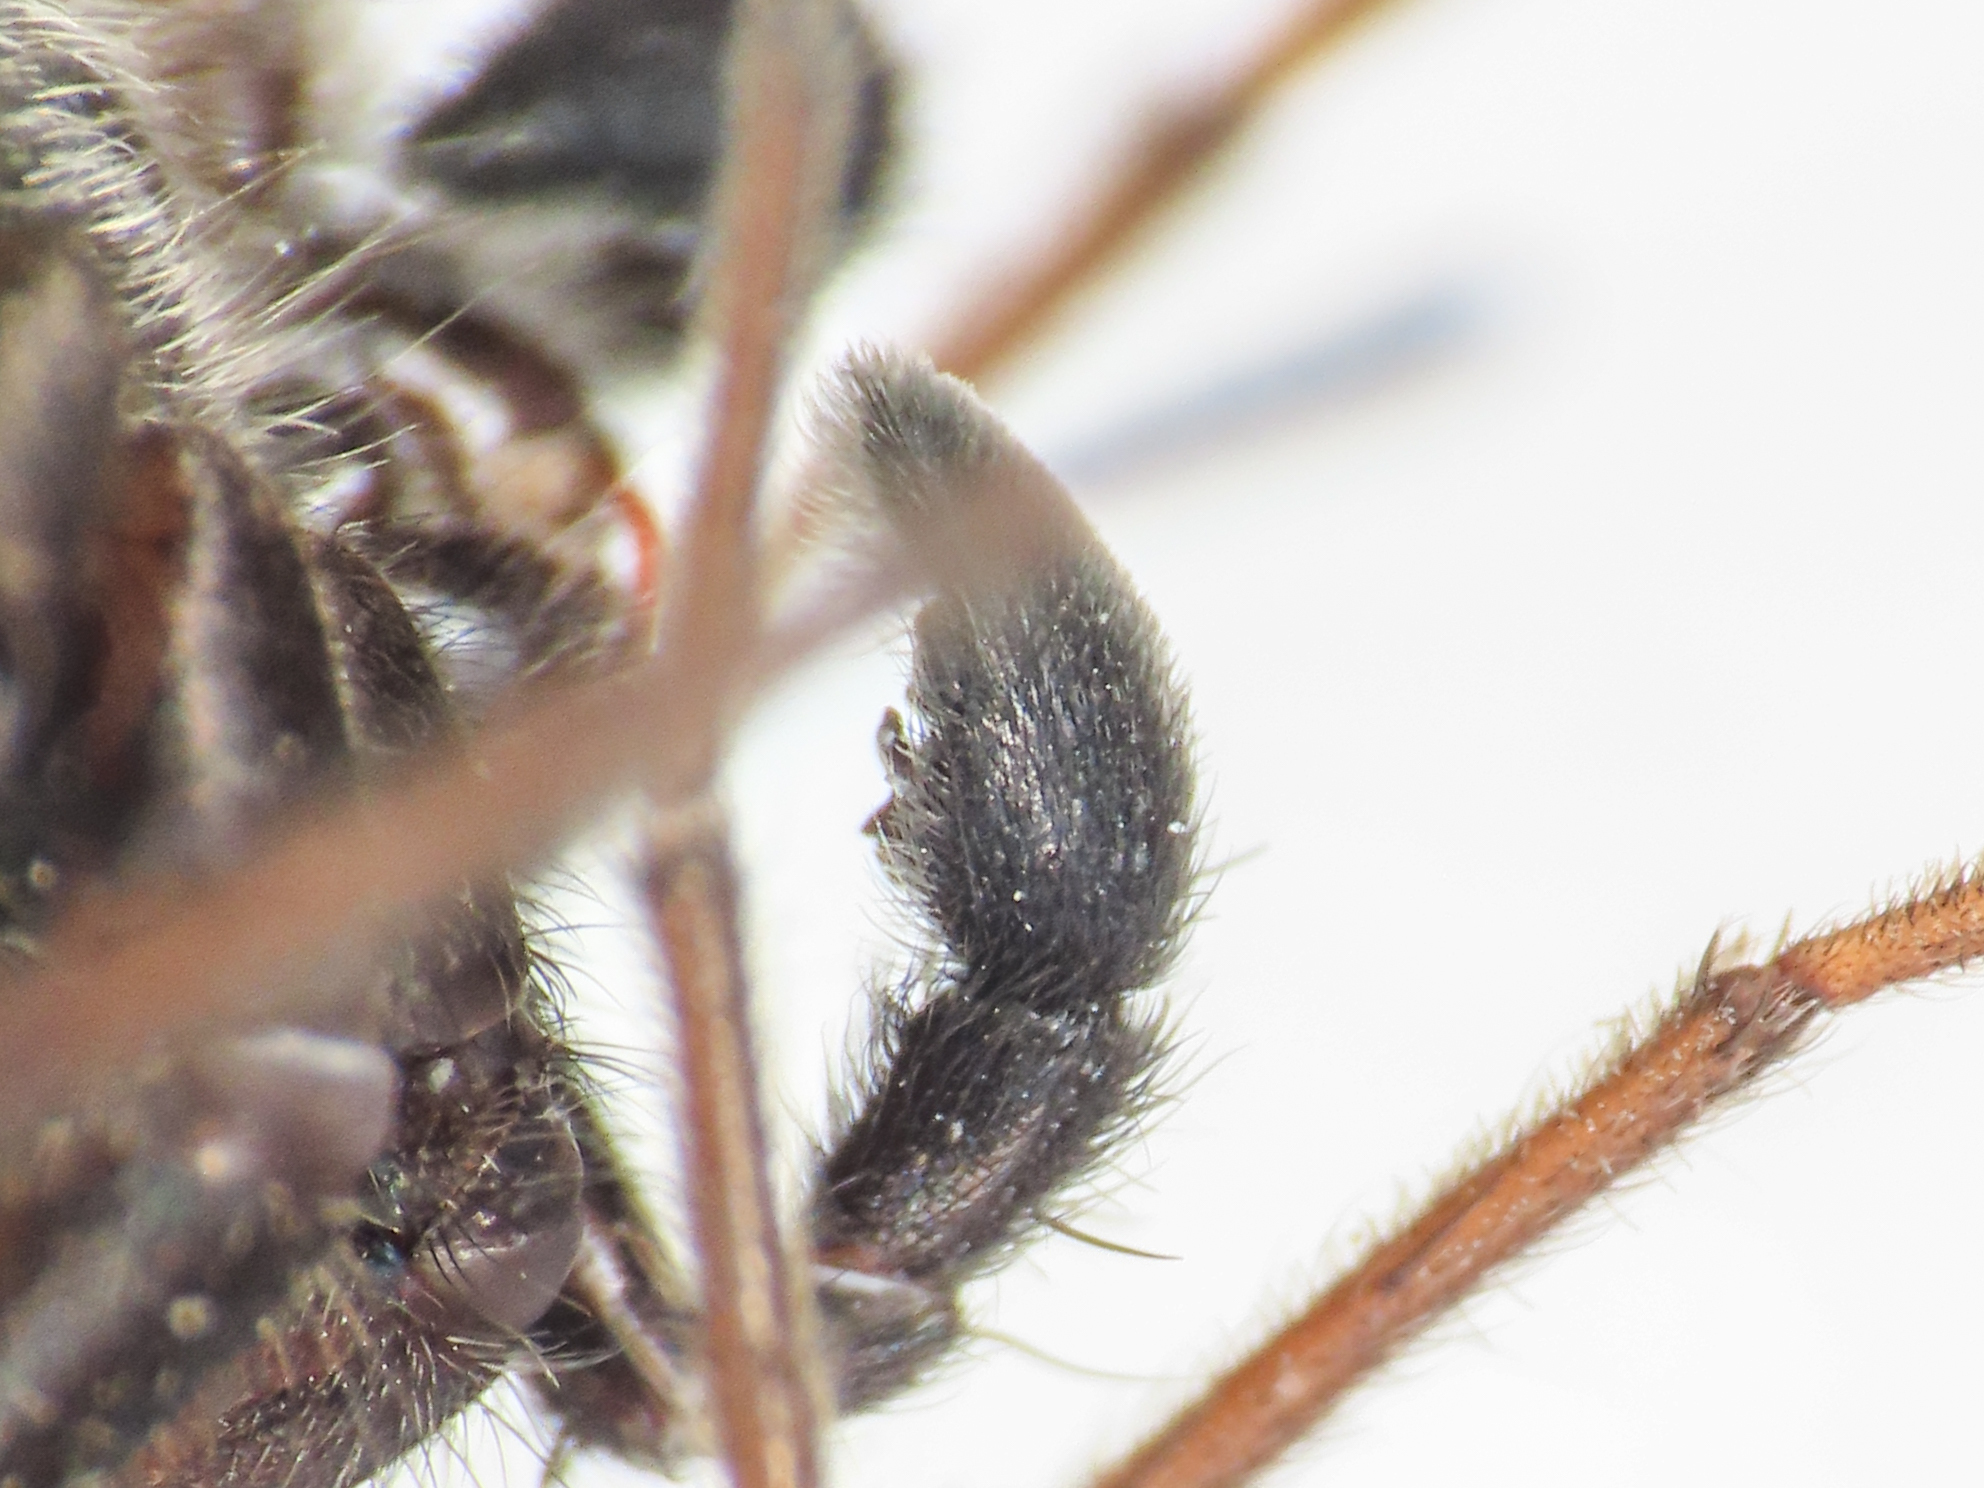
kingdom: Animalia
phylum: Arthropoda
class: Arachnida
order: Araneae
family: Lycosidae
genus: Pardosa
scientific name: Pardosa paludicola
